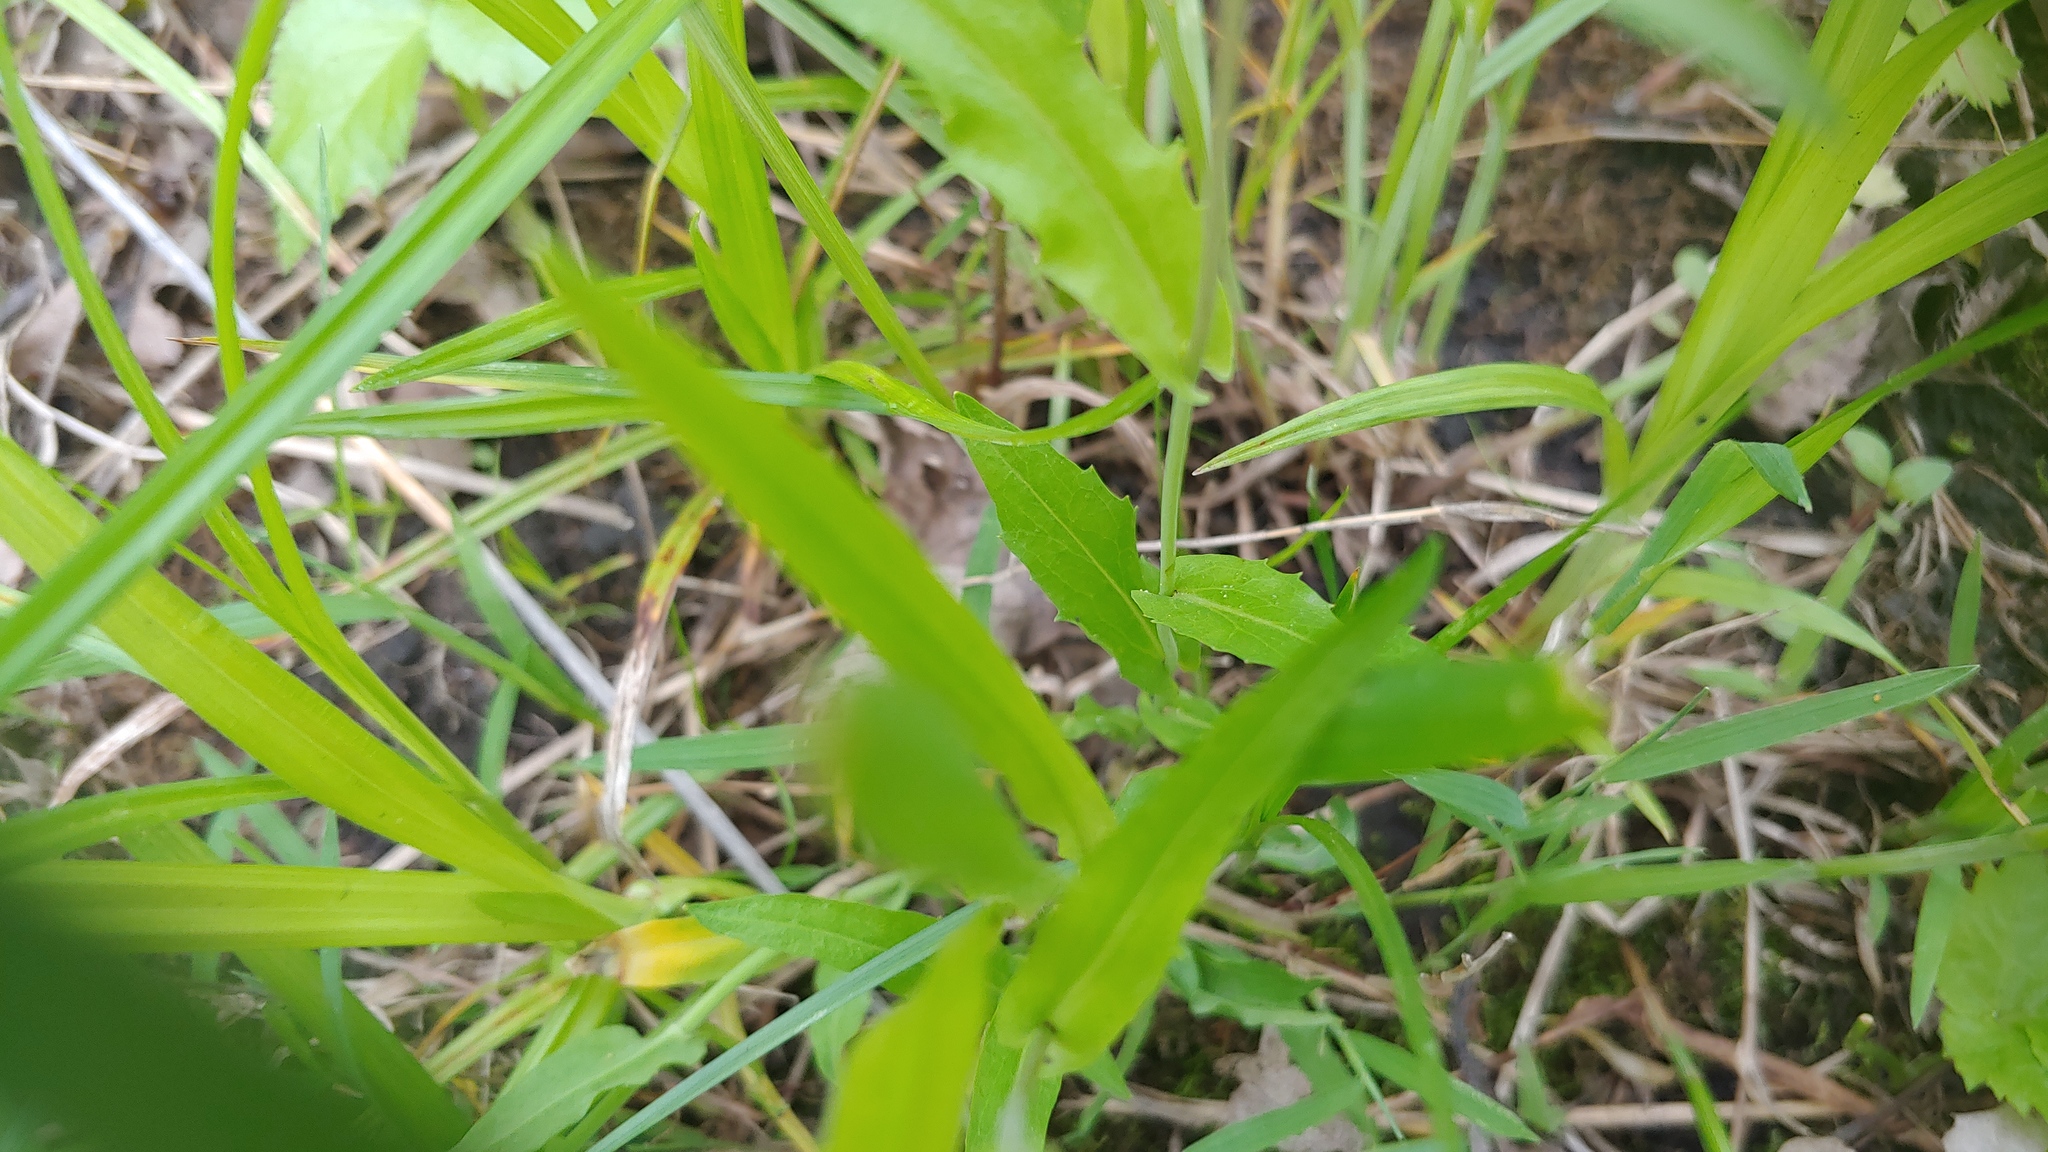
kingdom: Plantae
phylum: Tracheophyta
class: Magnoliopsida
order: Brassicales
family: Brassicaceae
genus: Borodinia
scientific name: Borodinia laevigata
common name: Smooth rockcress
